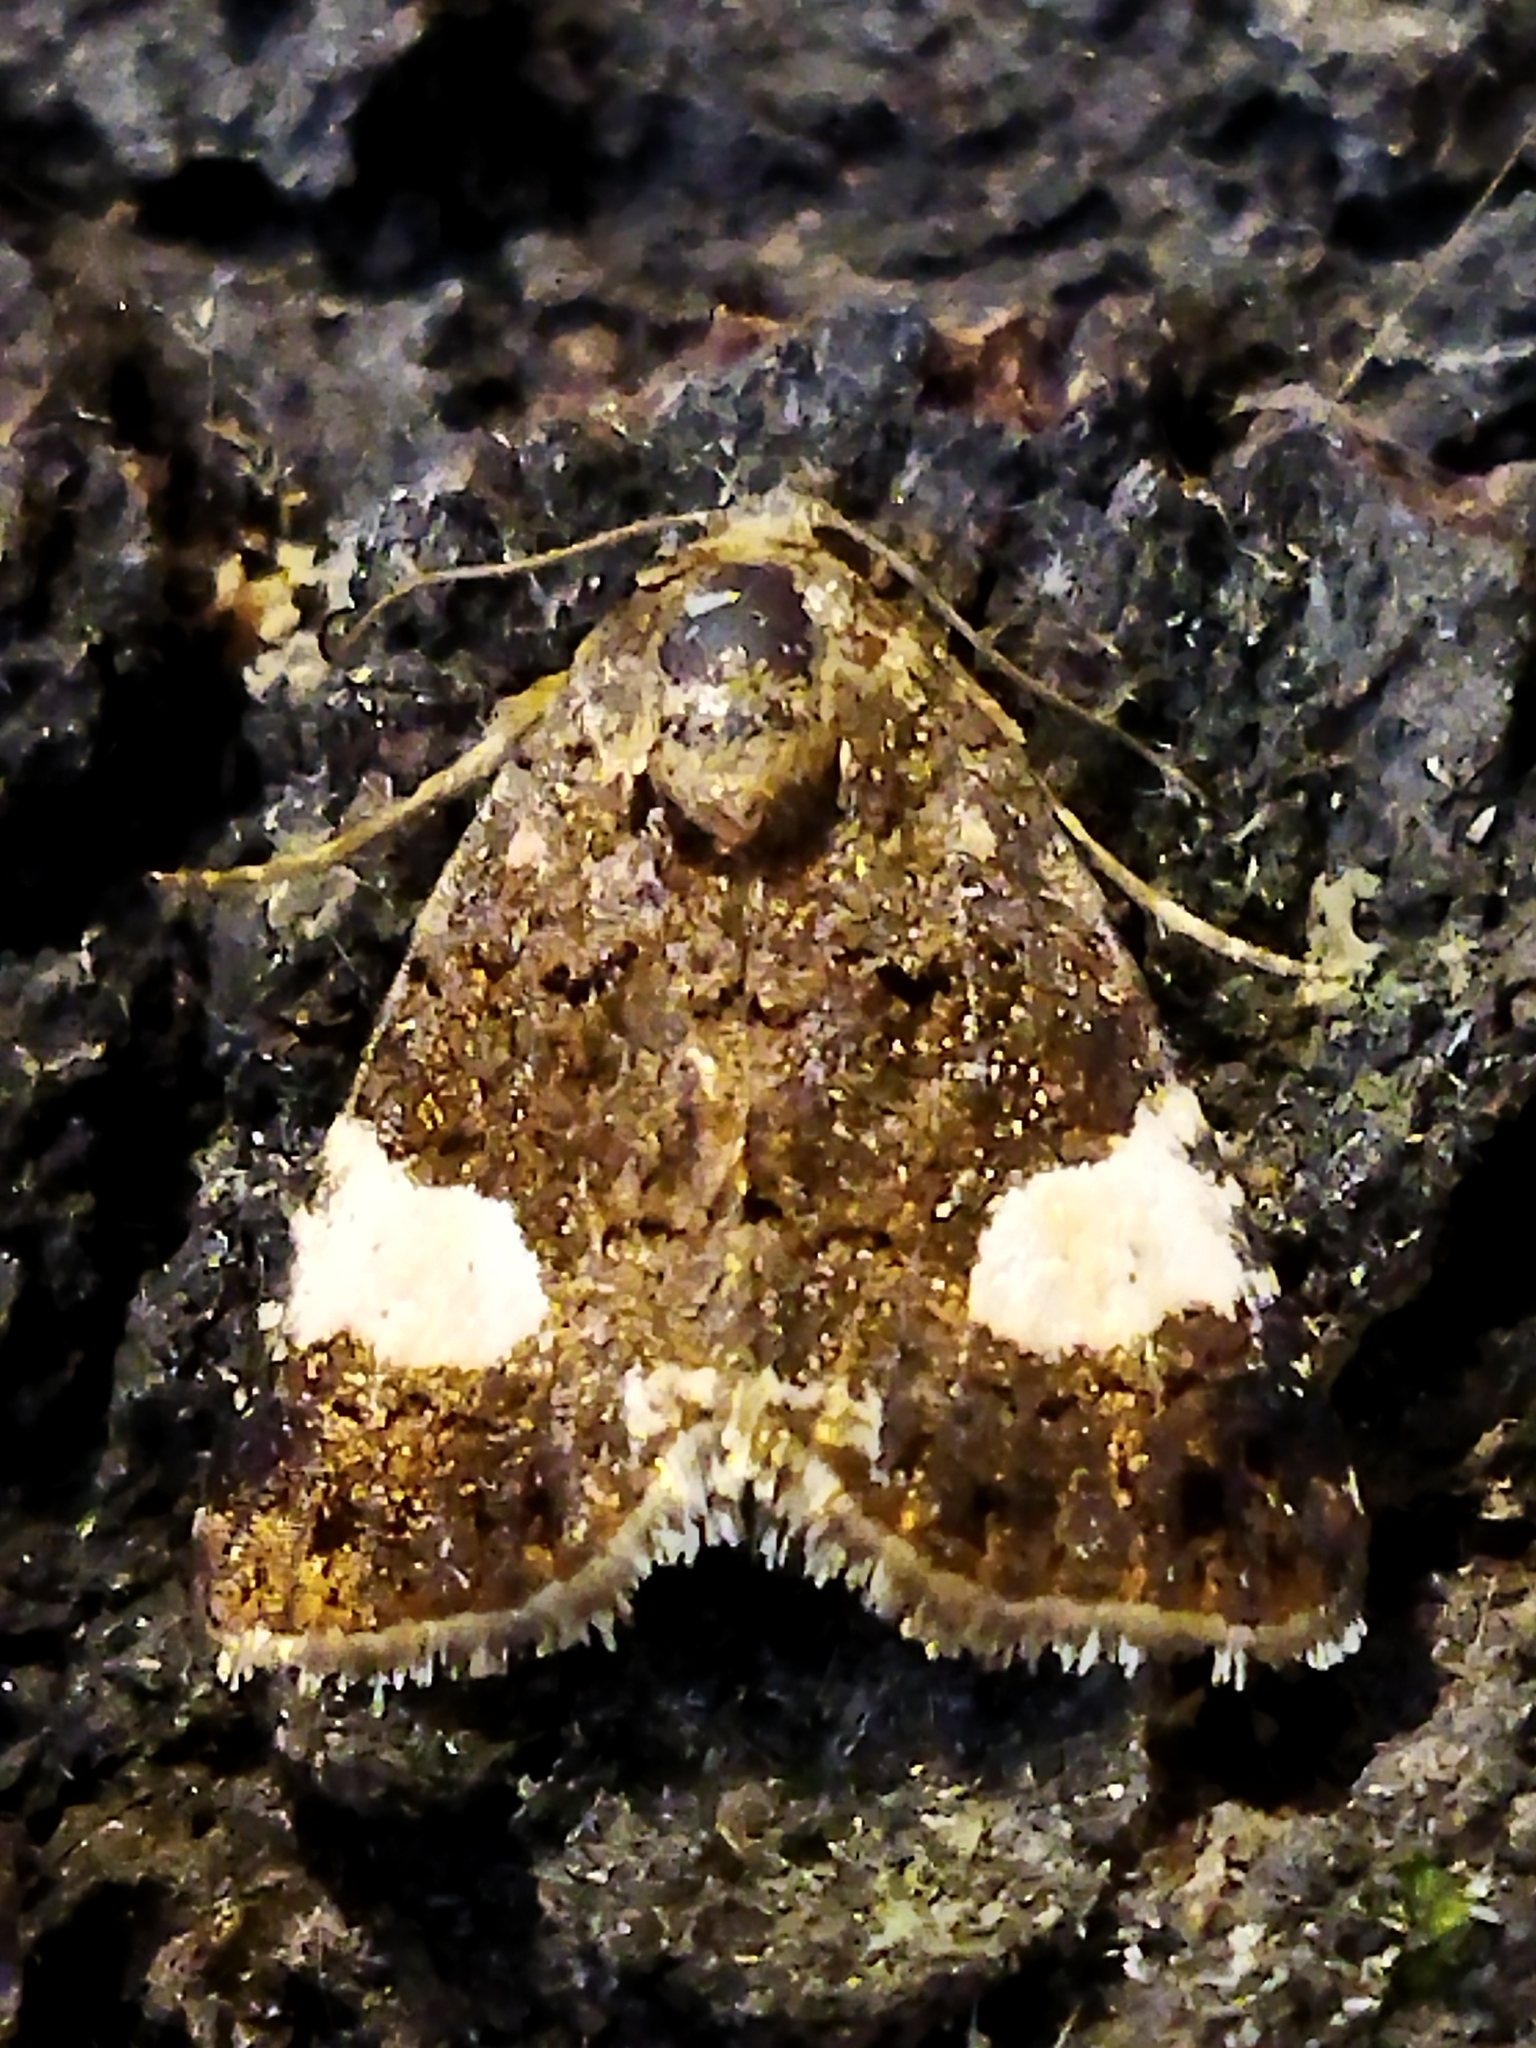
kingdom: Animalia
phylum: Arthropoda
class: Insecta
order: Lepidoptera
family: Erebidae
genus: Tyta
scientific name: Tyta luctuosa
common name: Four-spotted
